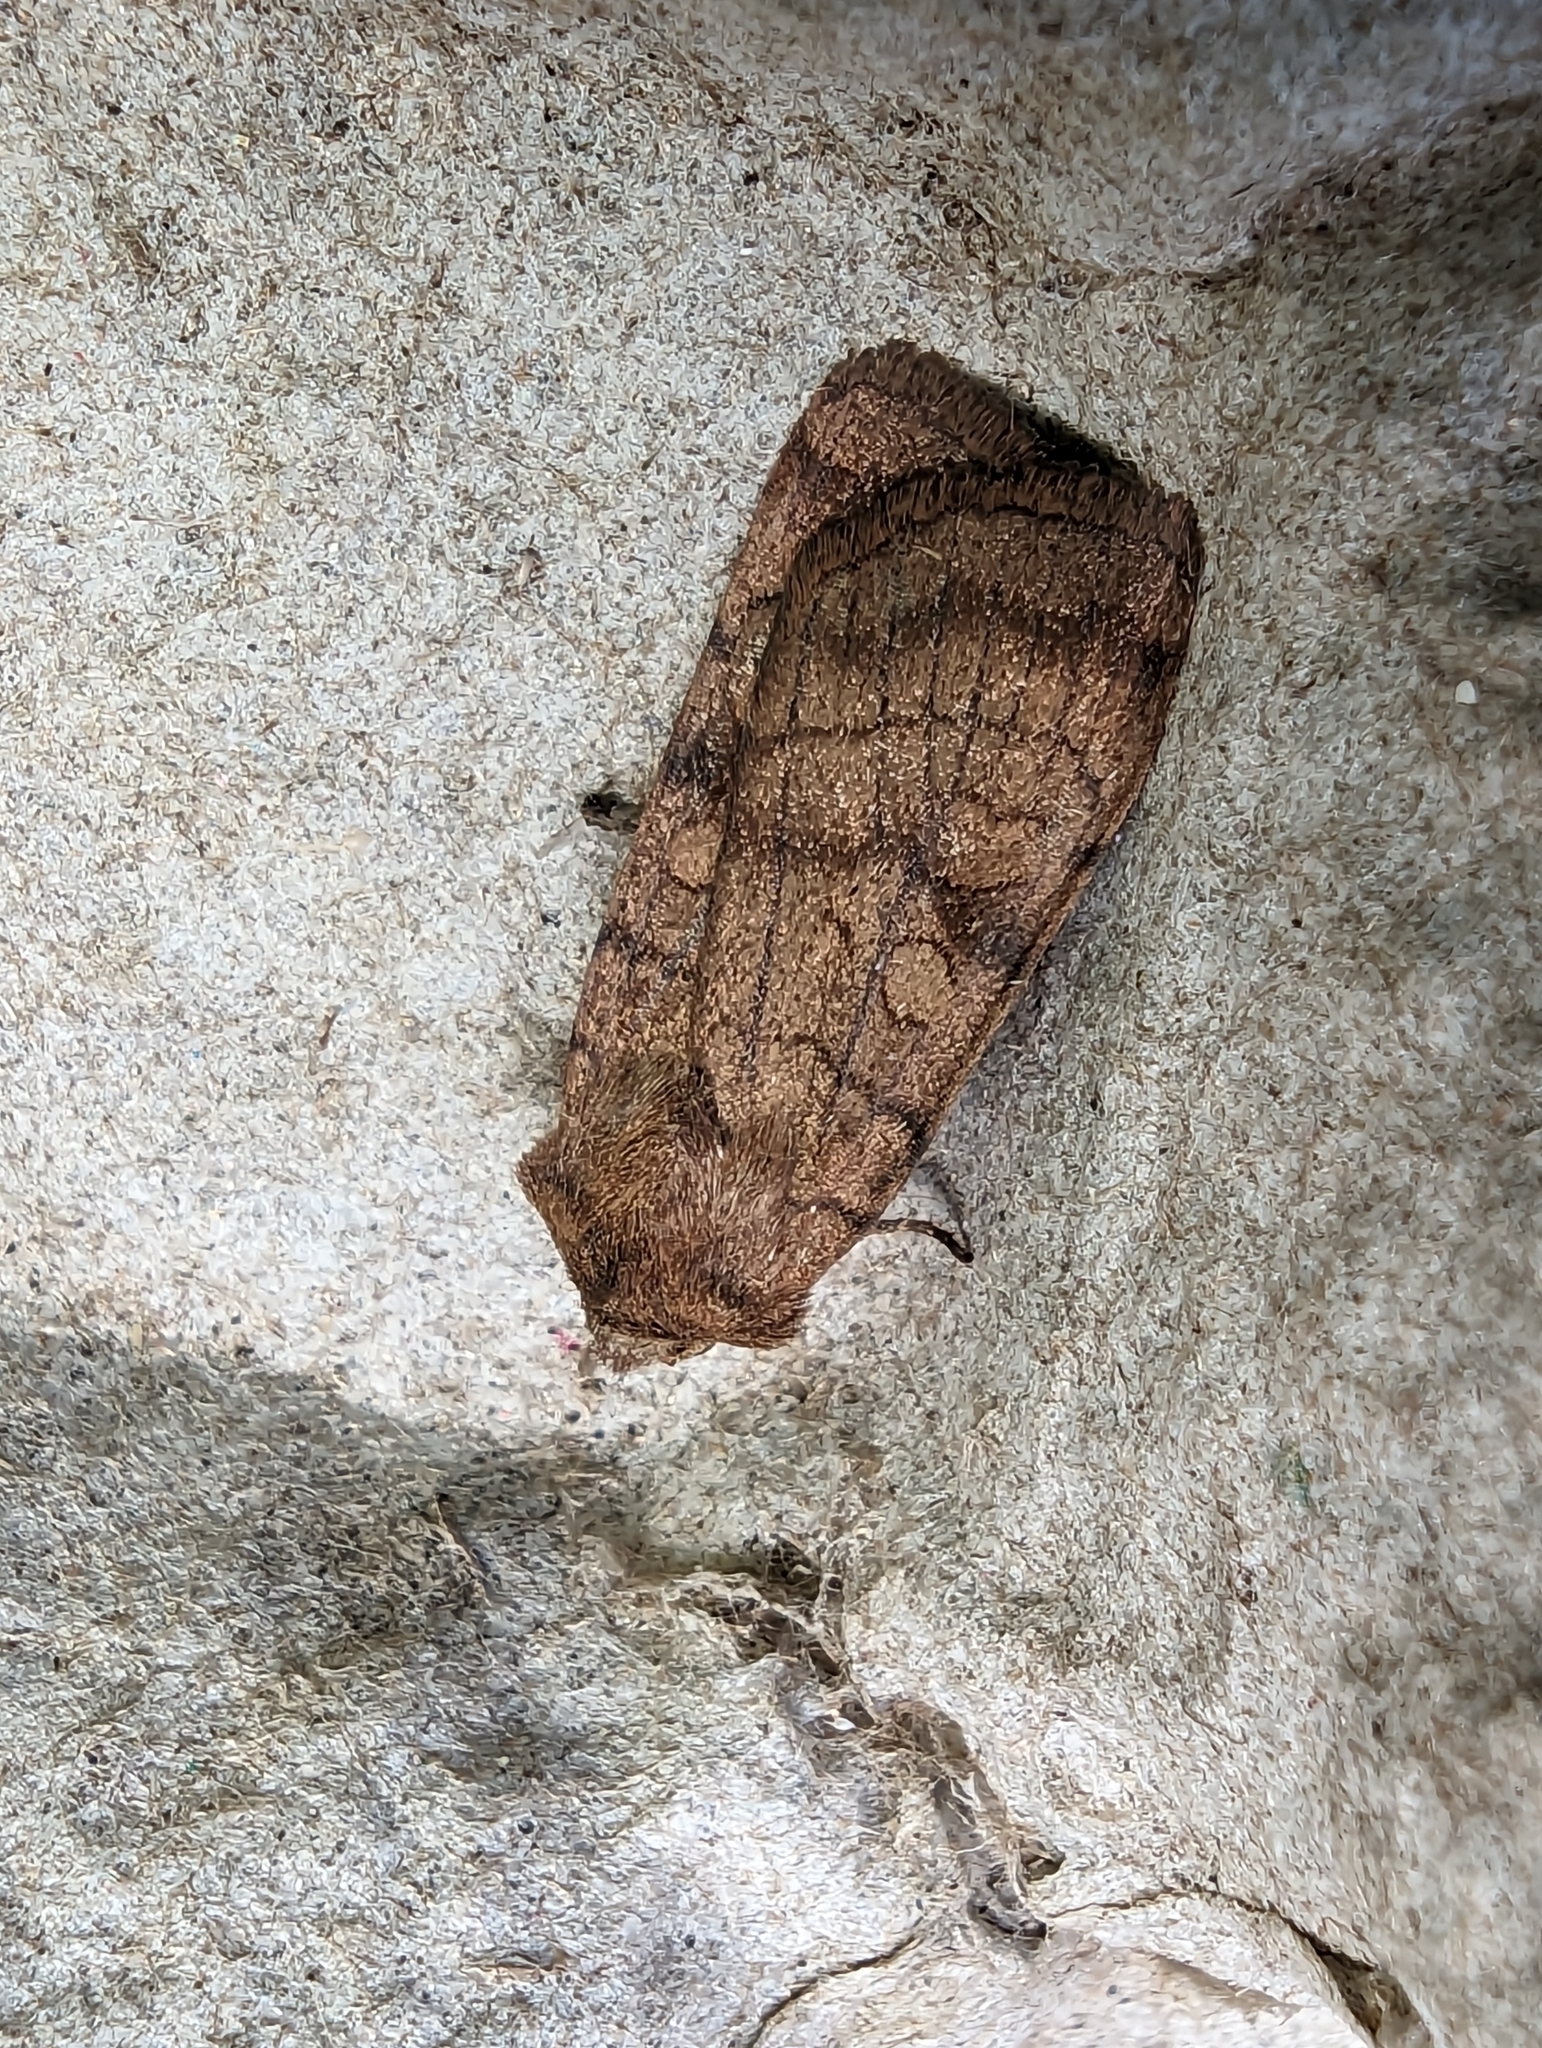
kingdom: Animalia
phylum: Arthropoda
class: Insecta
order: Lepidoptera
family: Noctuidae
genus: Xestia
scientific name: Xestia sexstrigata
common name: Six-striped rustic
